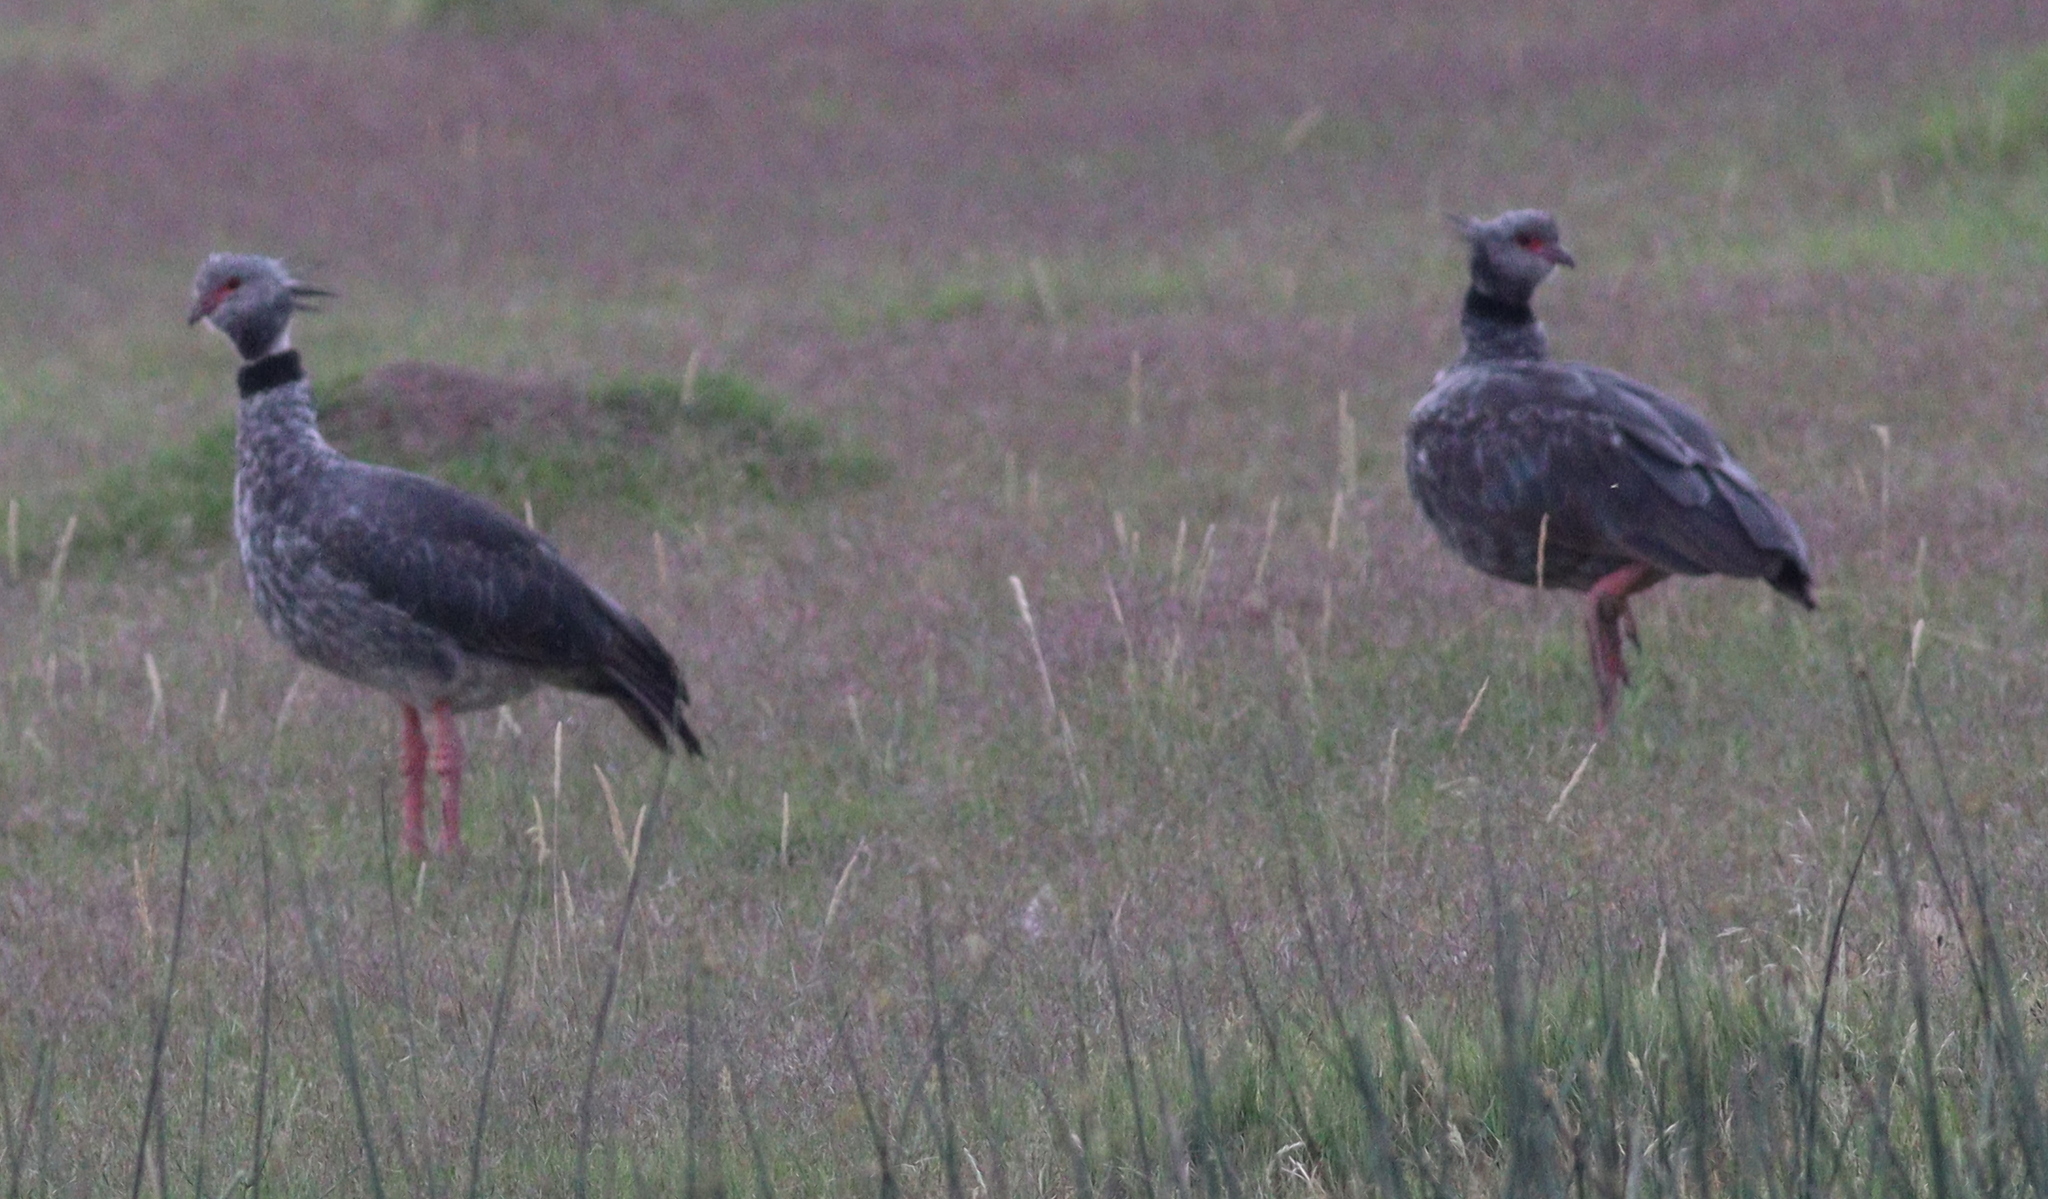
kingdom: Animalia
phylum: Chordata
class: Aves
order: Anseriformes
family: Anhimidae
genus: Chauna
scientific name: Chauna torquata
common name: Southern screamer
